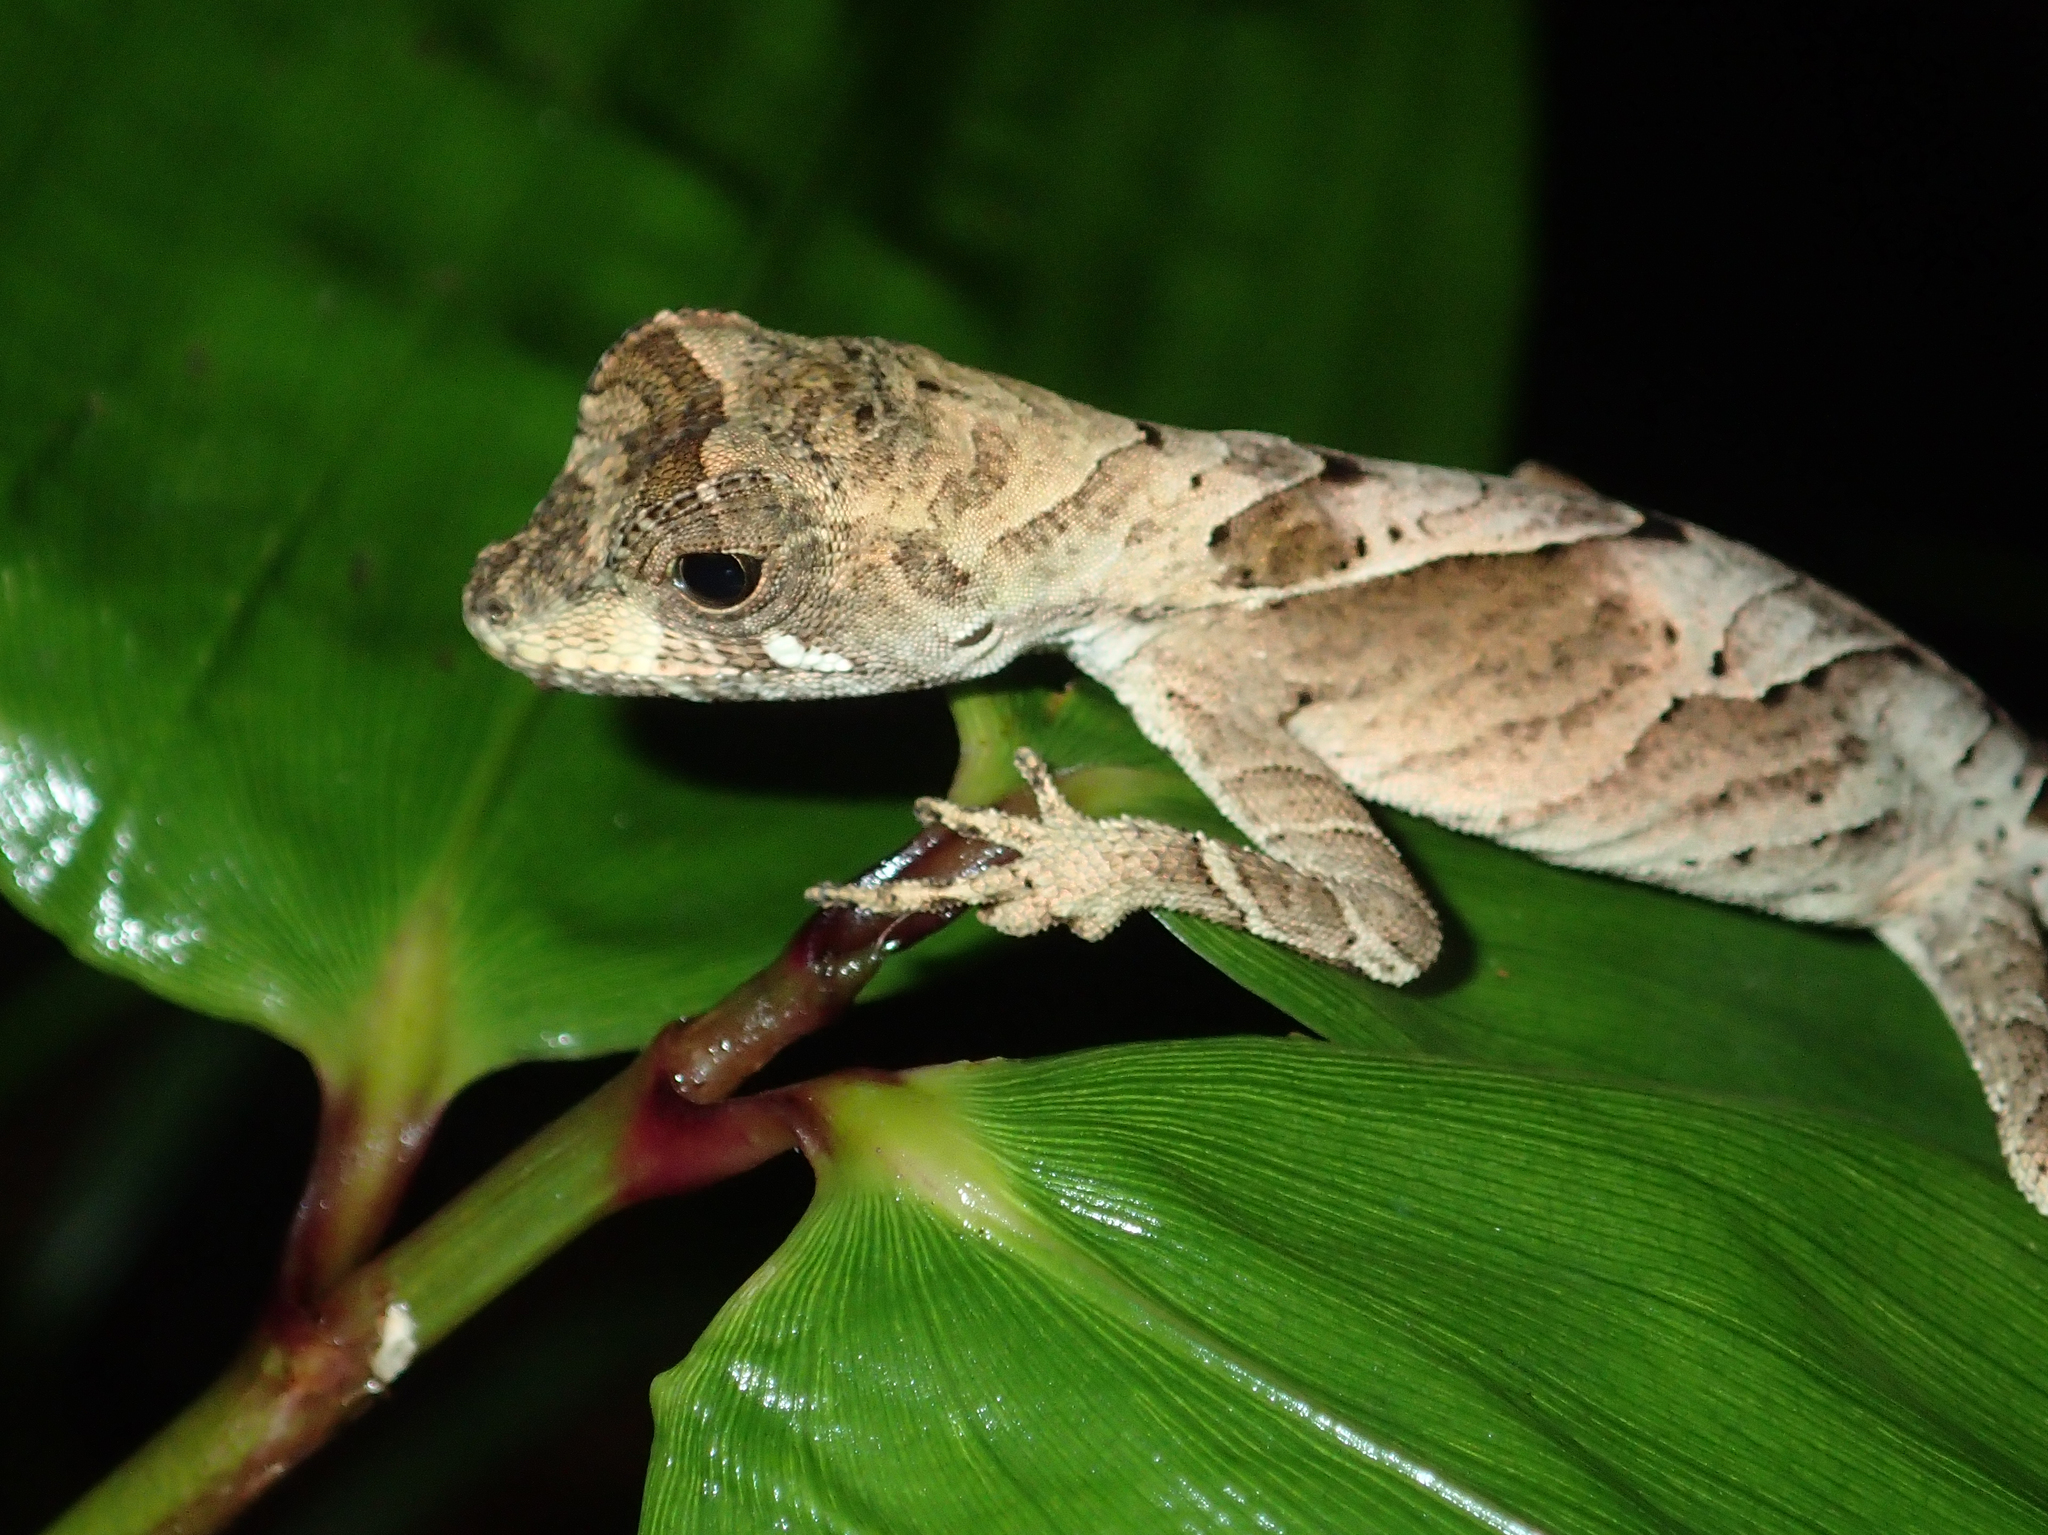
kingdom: Animalia
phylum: Chordata
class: Squamata
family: Dactyloidae
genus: Anolis
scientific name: Anolis scypheus
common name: Yellow-tongued anole
